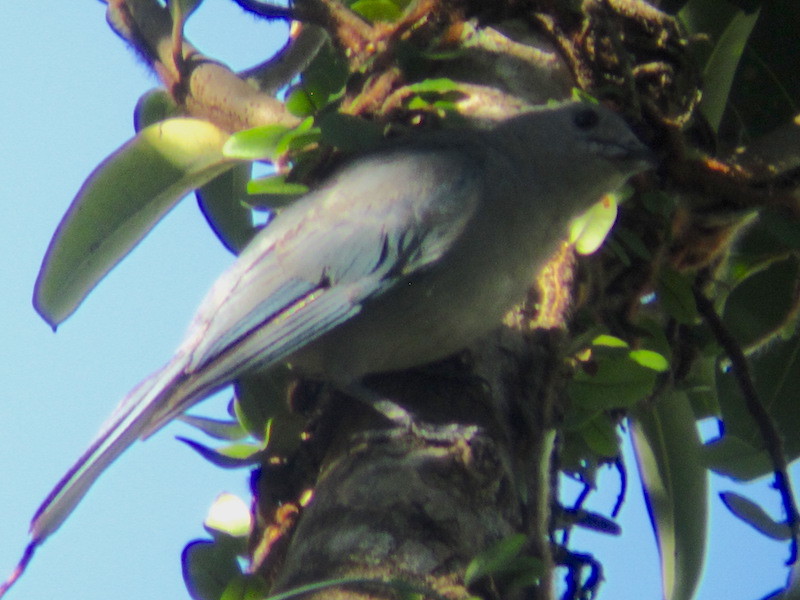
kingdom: Animalia
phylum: Chordata
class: Aves
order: Passeriformes
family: Thraupidae
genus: Thraupis
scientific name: Thraupis sayaca
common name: Sayaca tanager
